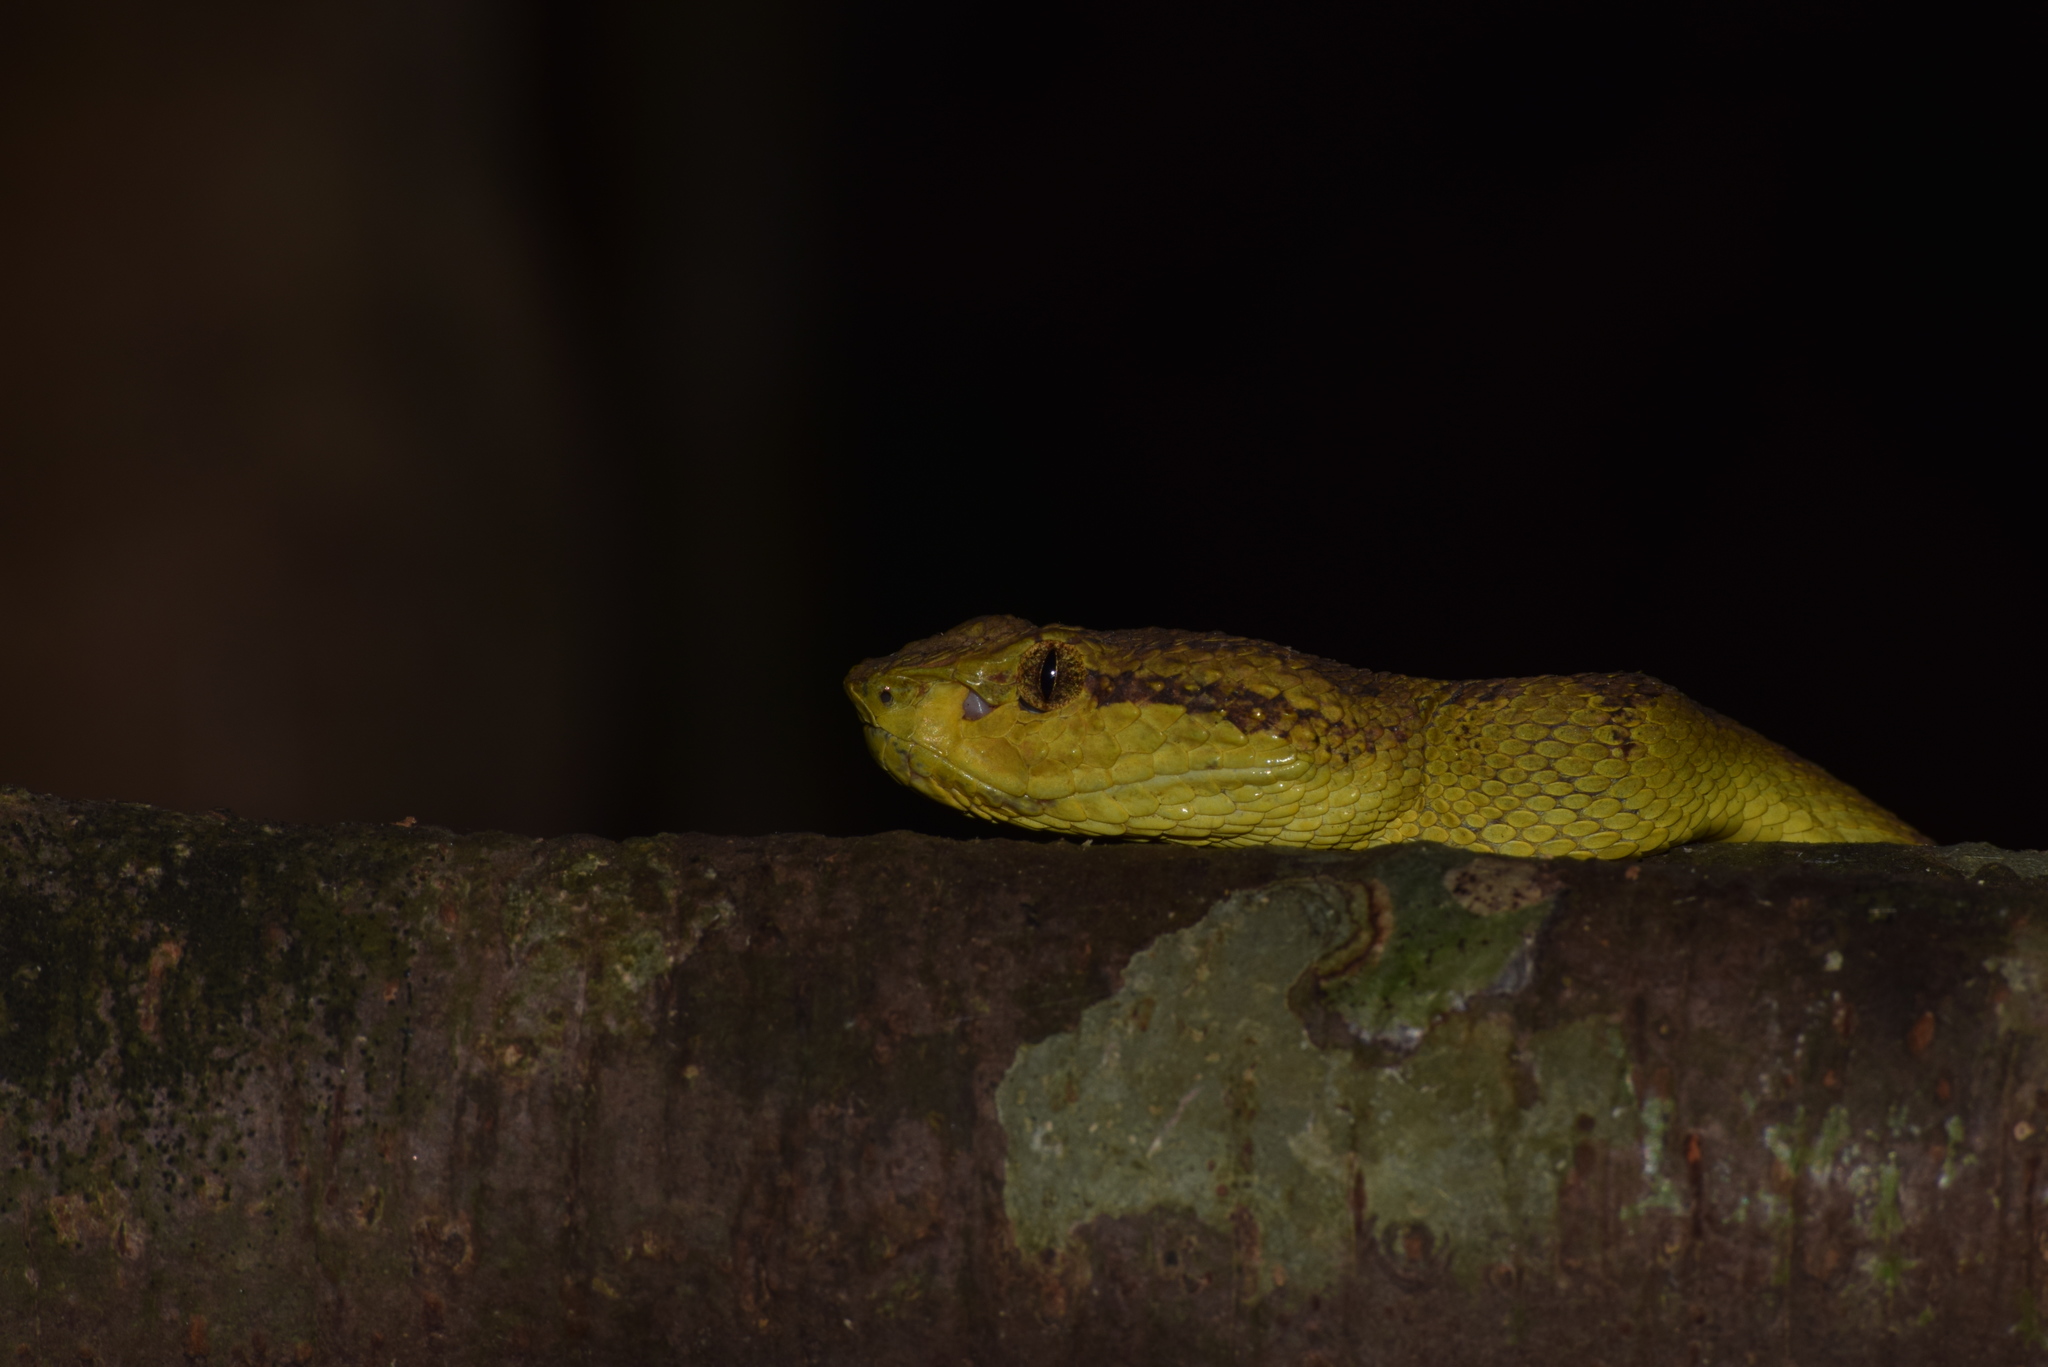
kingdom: Animalia
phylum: Chordata
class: Squamata
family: Viperidae
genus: Craspedocephalus
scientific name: Craspedocephalus malabaricus
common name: Malabarian pit viper
